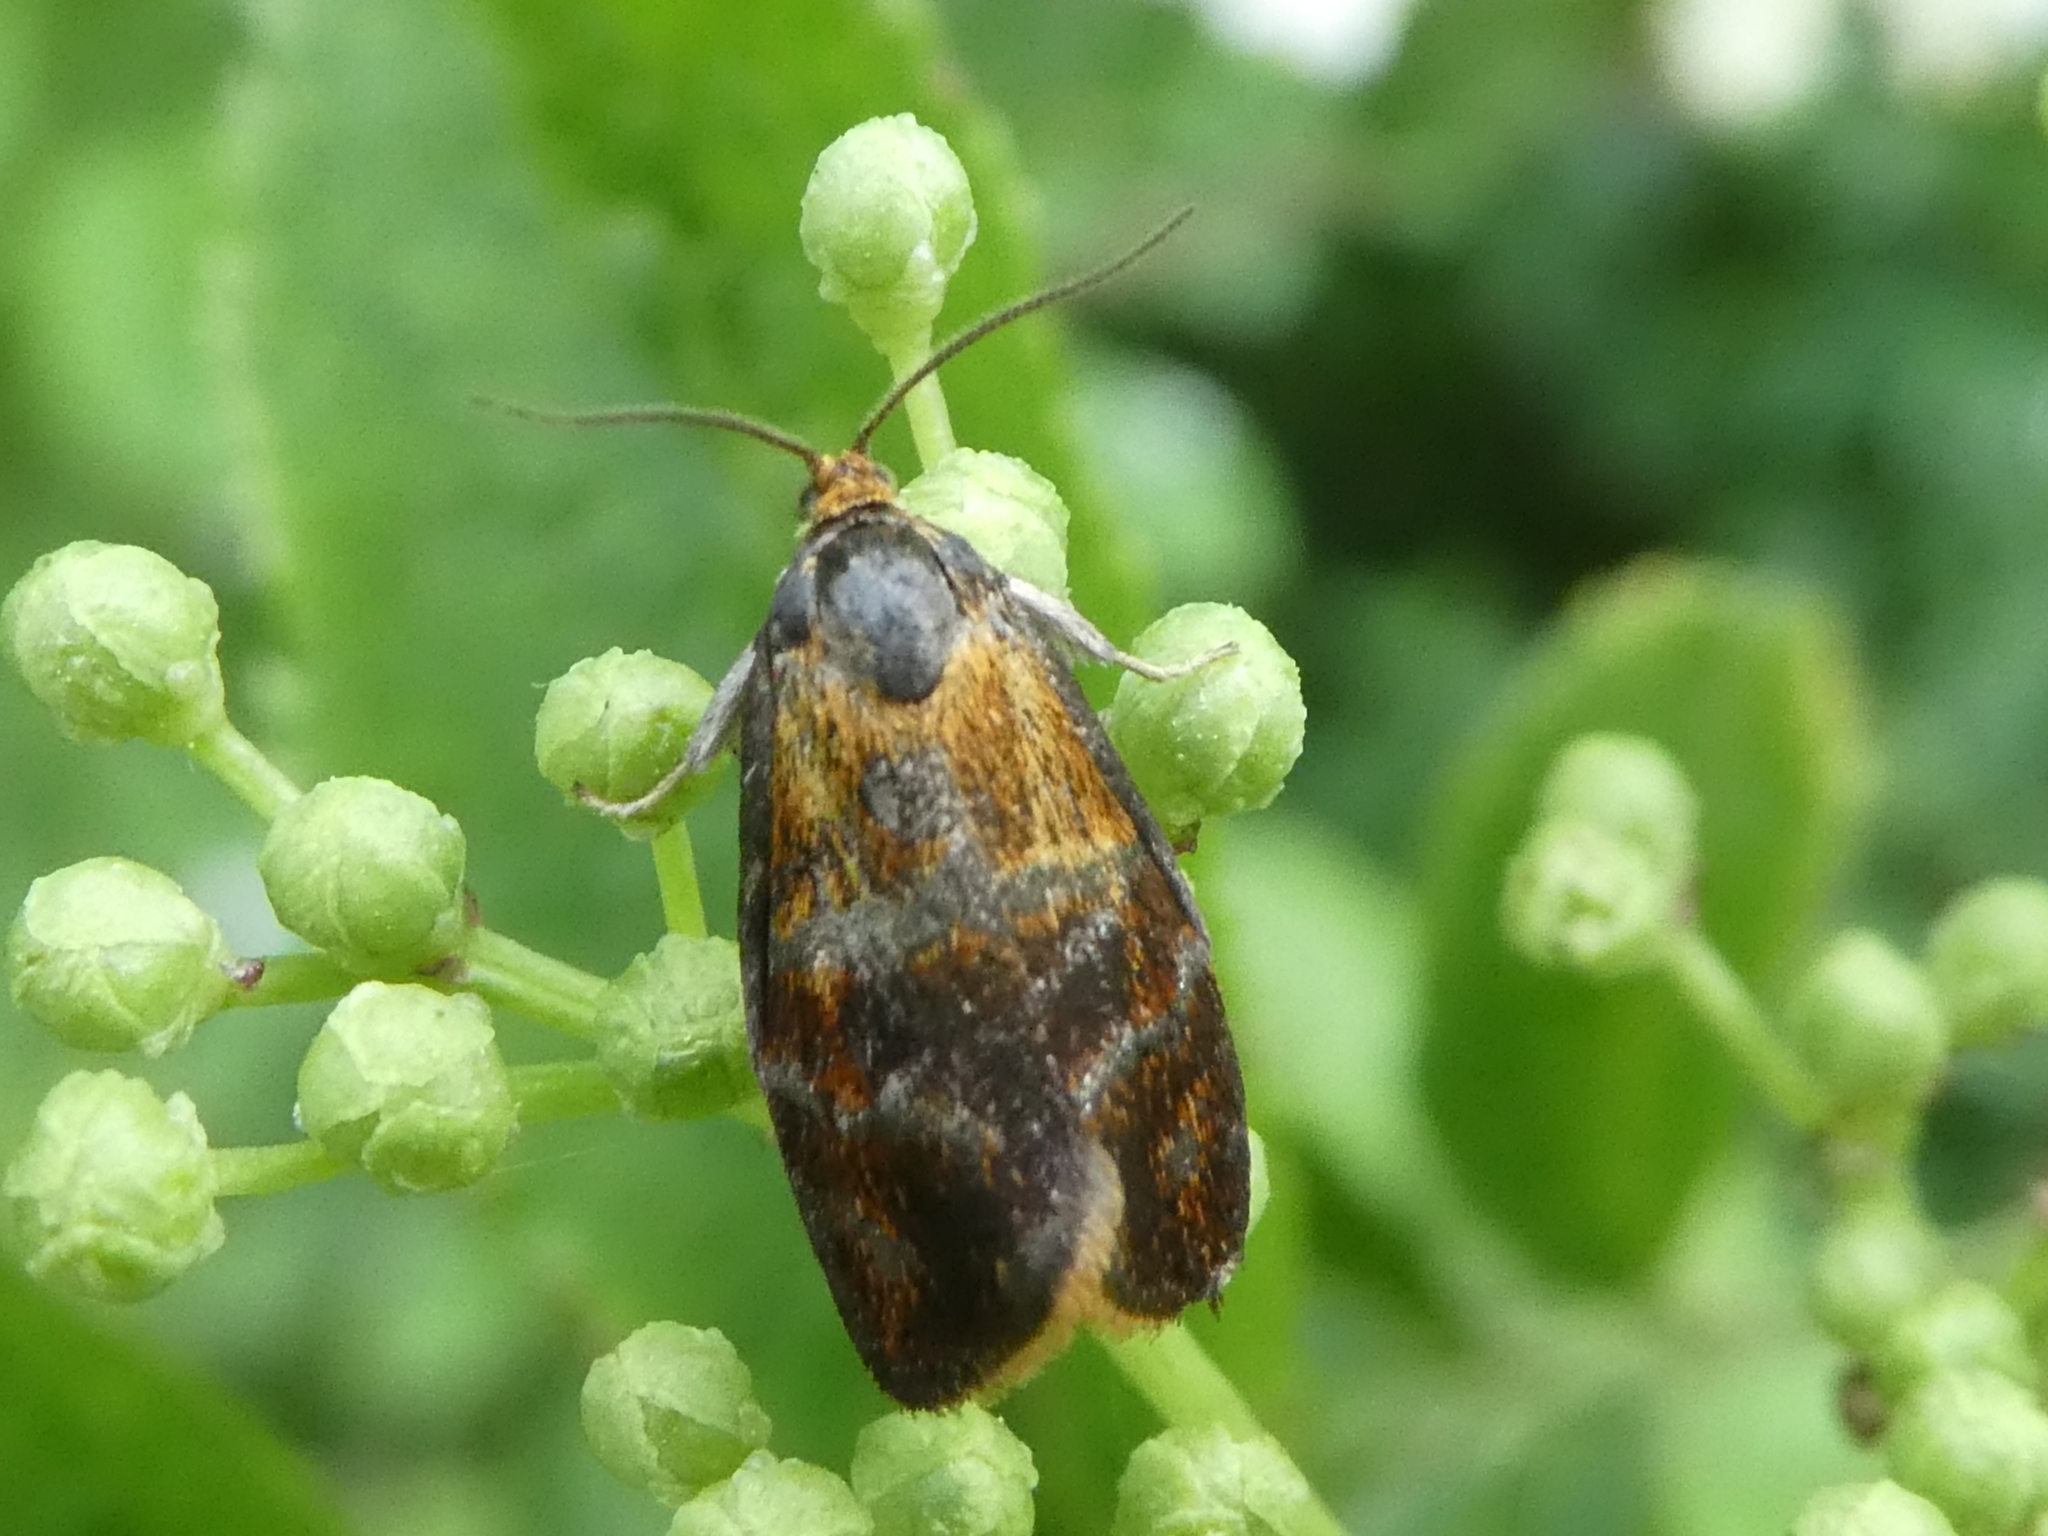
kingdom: Animalia
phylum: Arthropoda
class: Insecta
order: Lepidoptera
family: Tortricidae
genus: Ptycholoma
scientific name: Ptycholoma lecheana
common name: Leches twist moth
